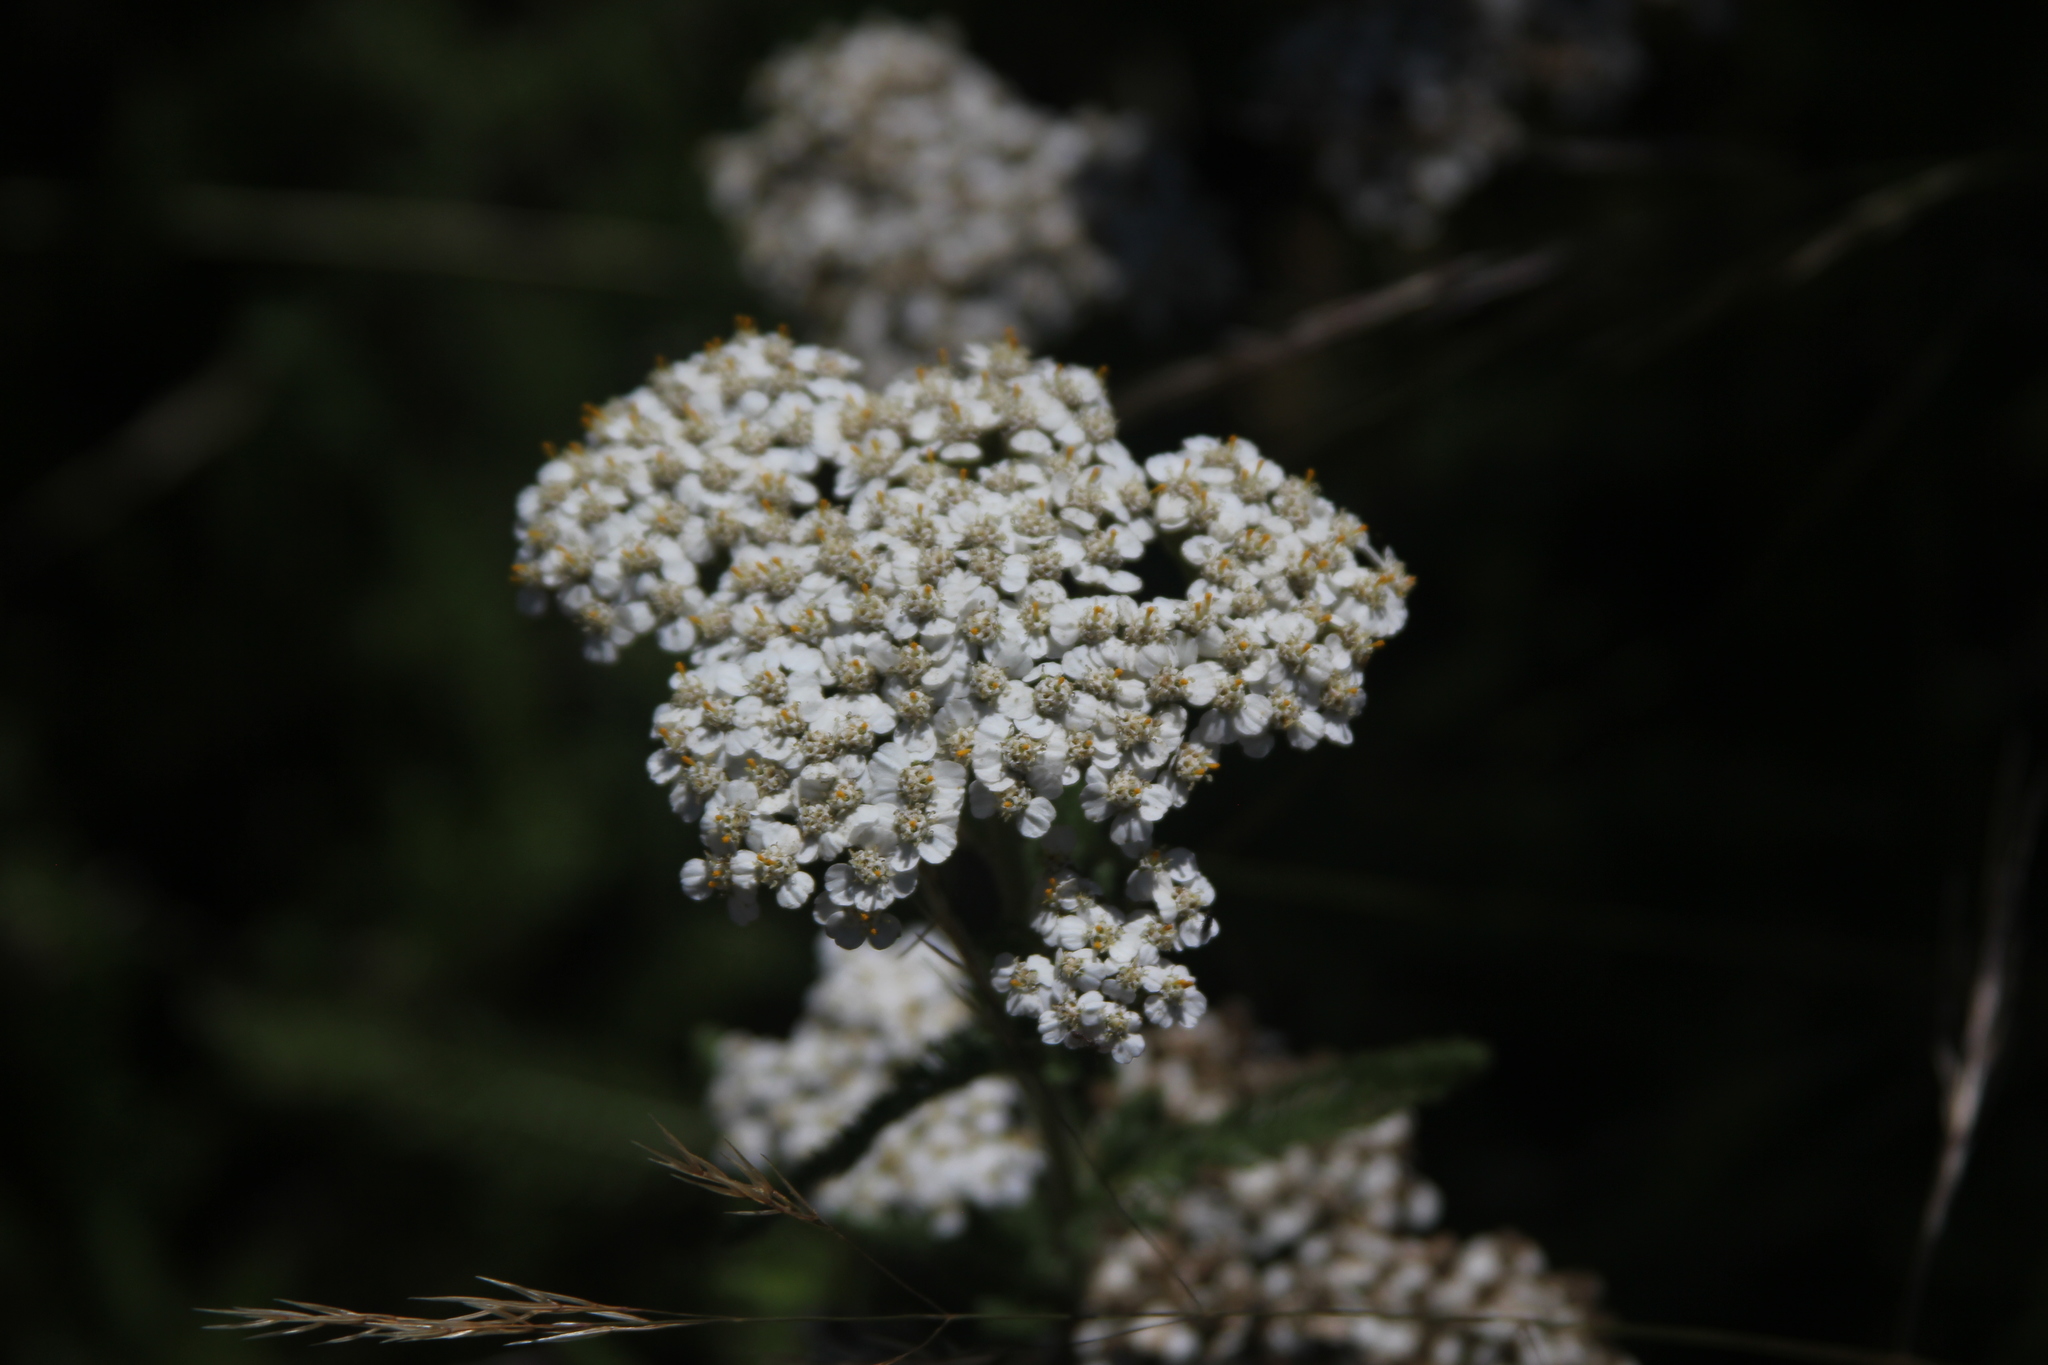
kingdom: Plantae
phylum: Tracheophyta
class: Magnoliopsida
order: Asterales
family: Asteraceae
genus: Achillea
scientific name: Achillea millefolium
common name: Yarrow
